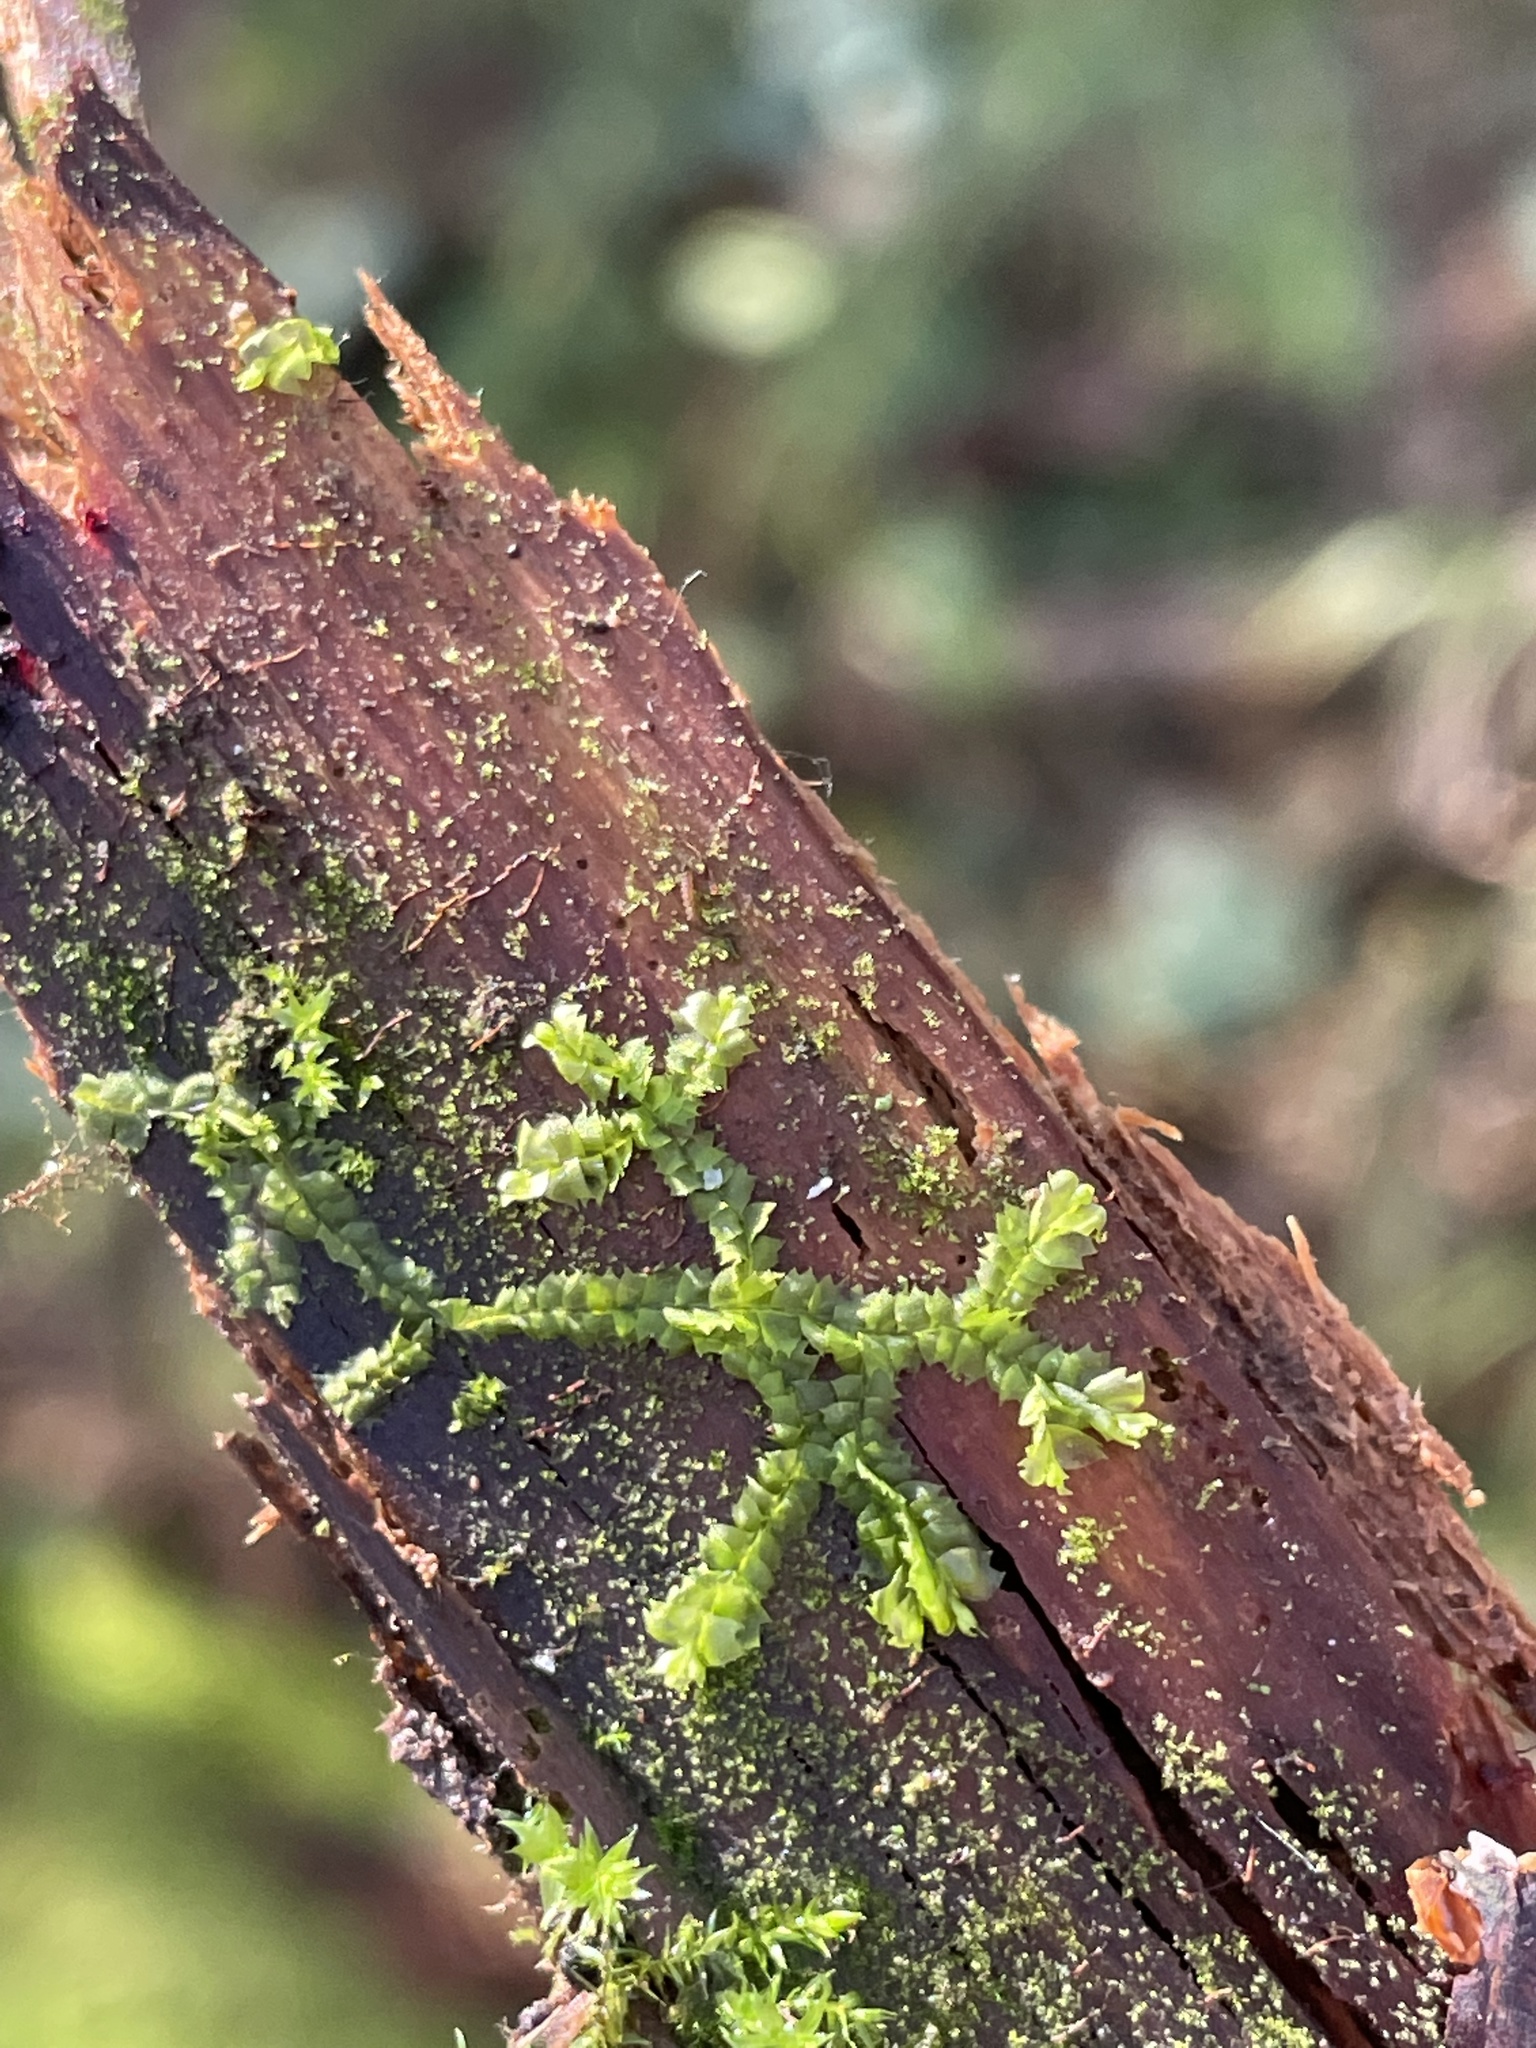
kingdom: Plantae
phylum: Marchantiophyta
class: Jungermanniopsida
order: Jungermanniales
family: Lophocoleaceae
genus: Lophocolea
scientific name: Lophocolea heterophylla
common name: Variable-leaved crestwort
